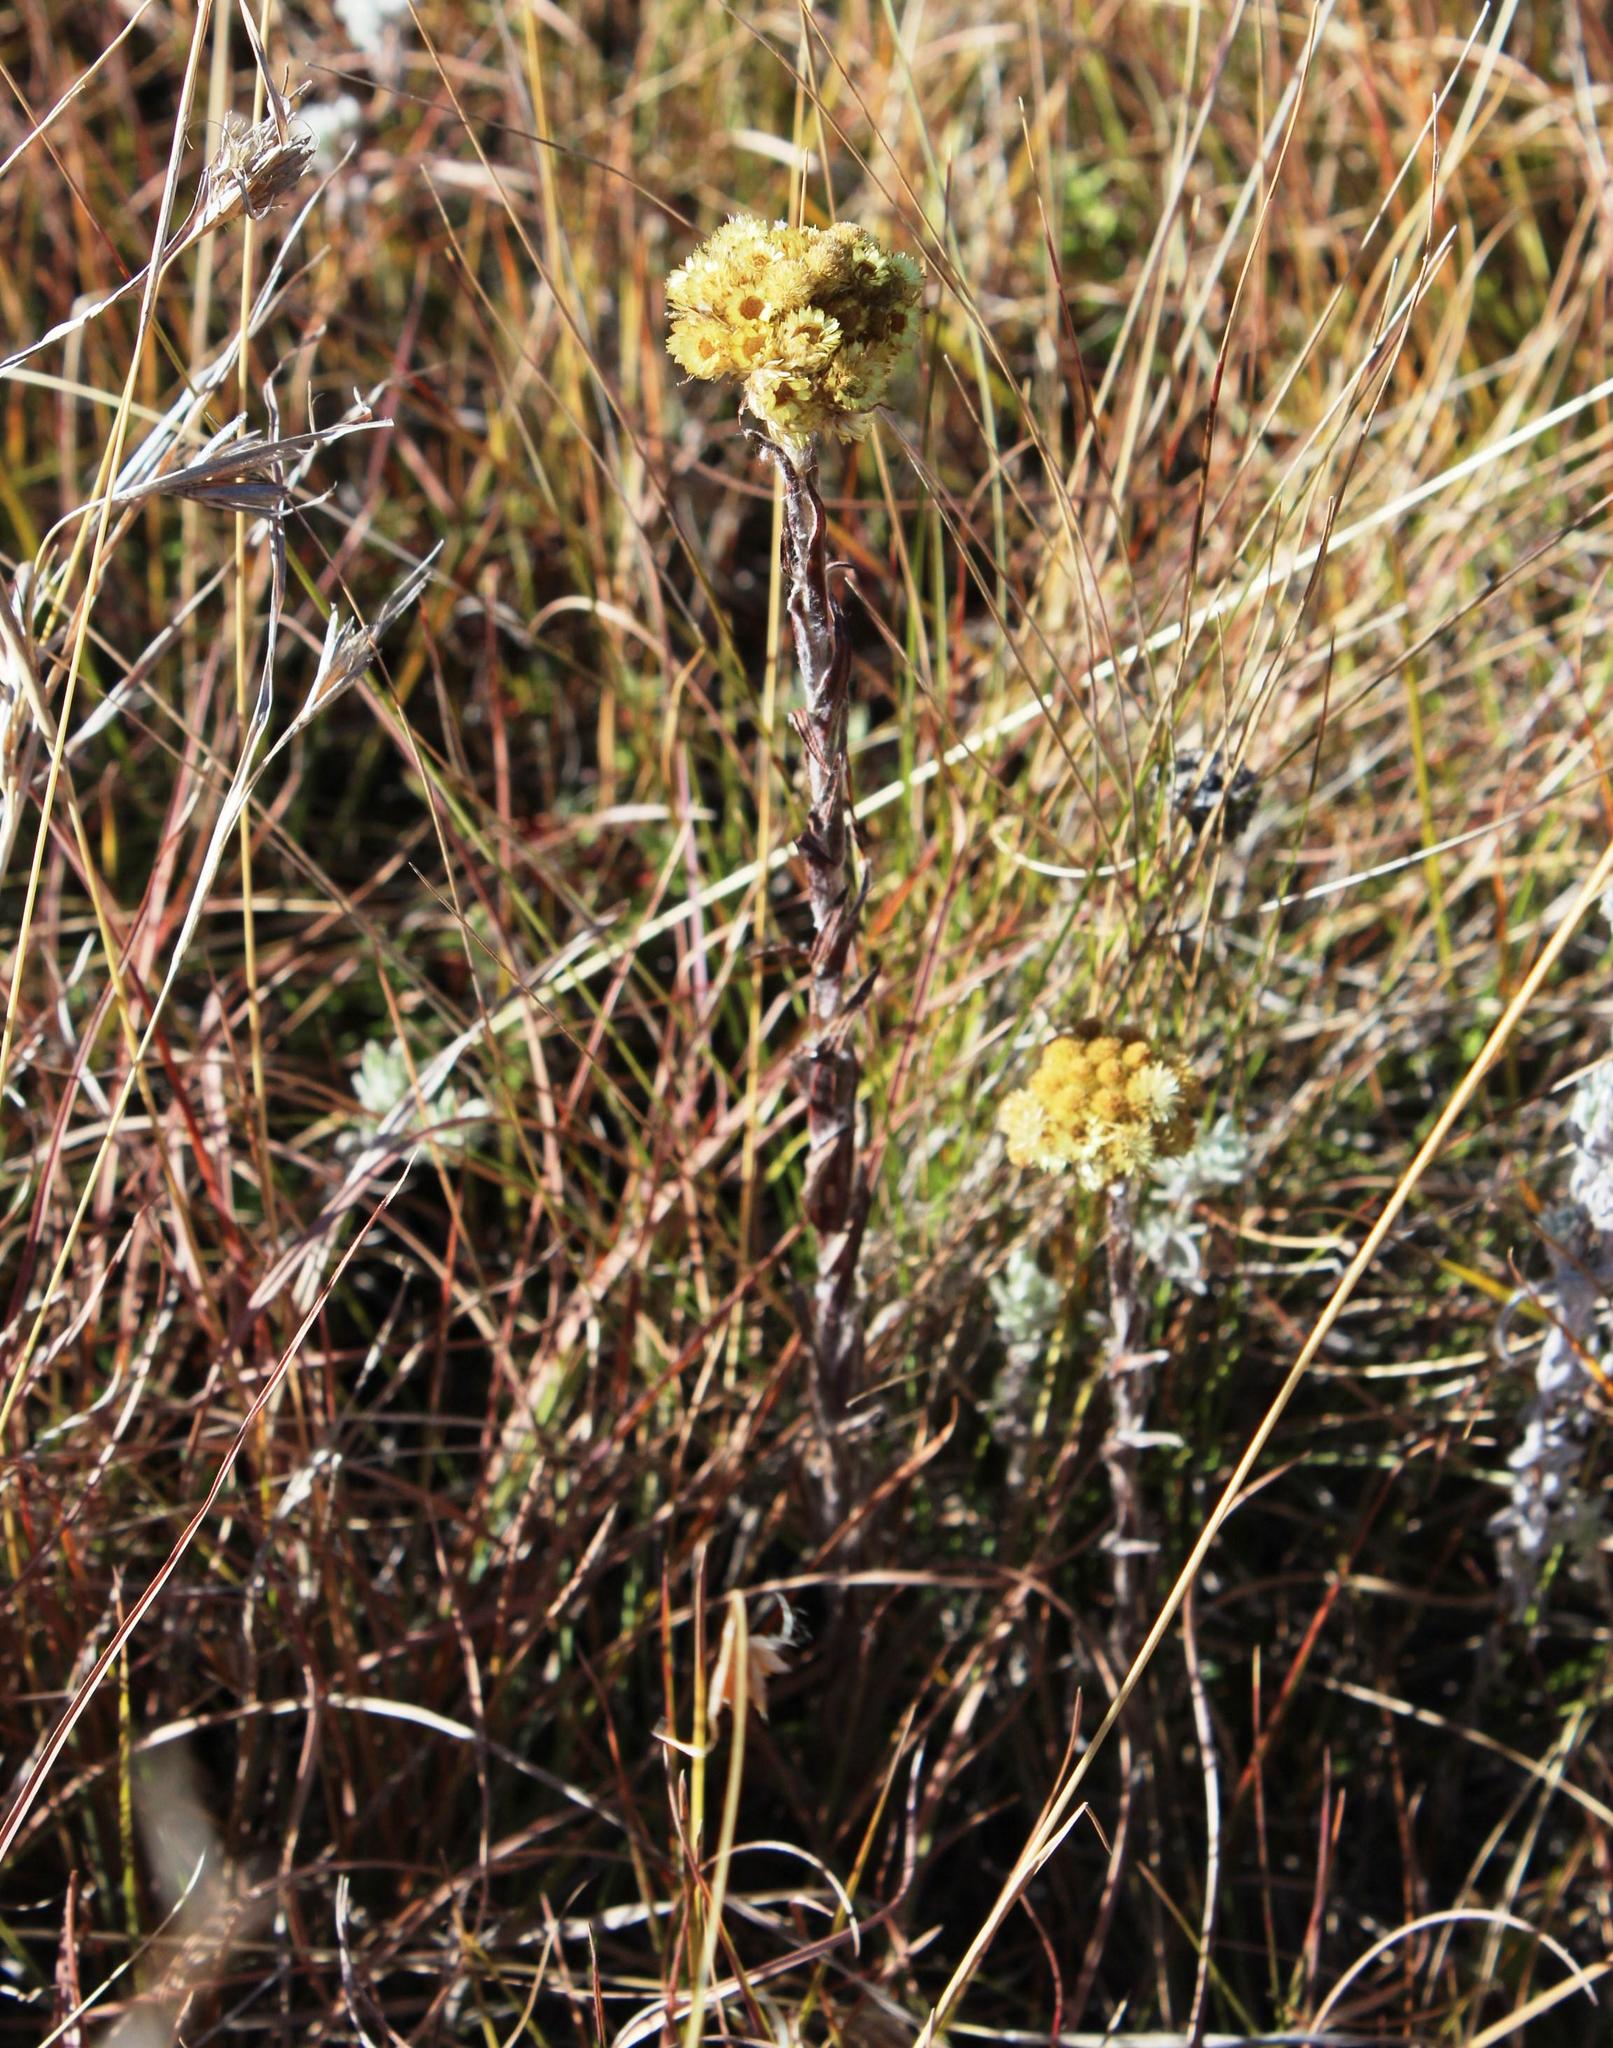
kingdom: Plantae
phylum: Tracheophyta
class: Magnoliopsida
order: Asterales
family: Asteraceae
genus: Helichrysum
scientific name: Helichrysum cephaloideum
